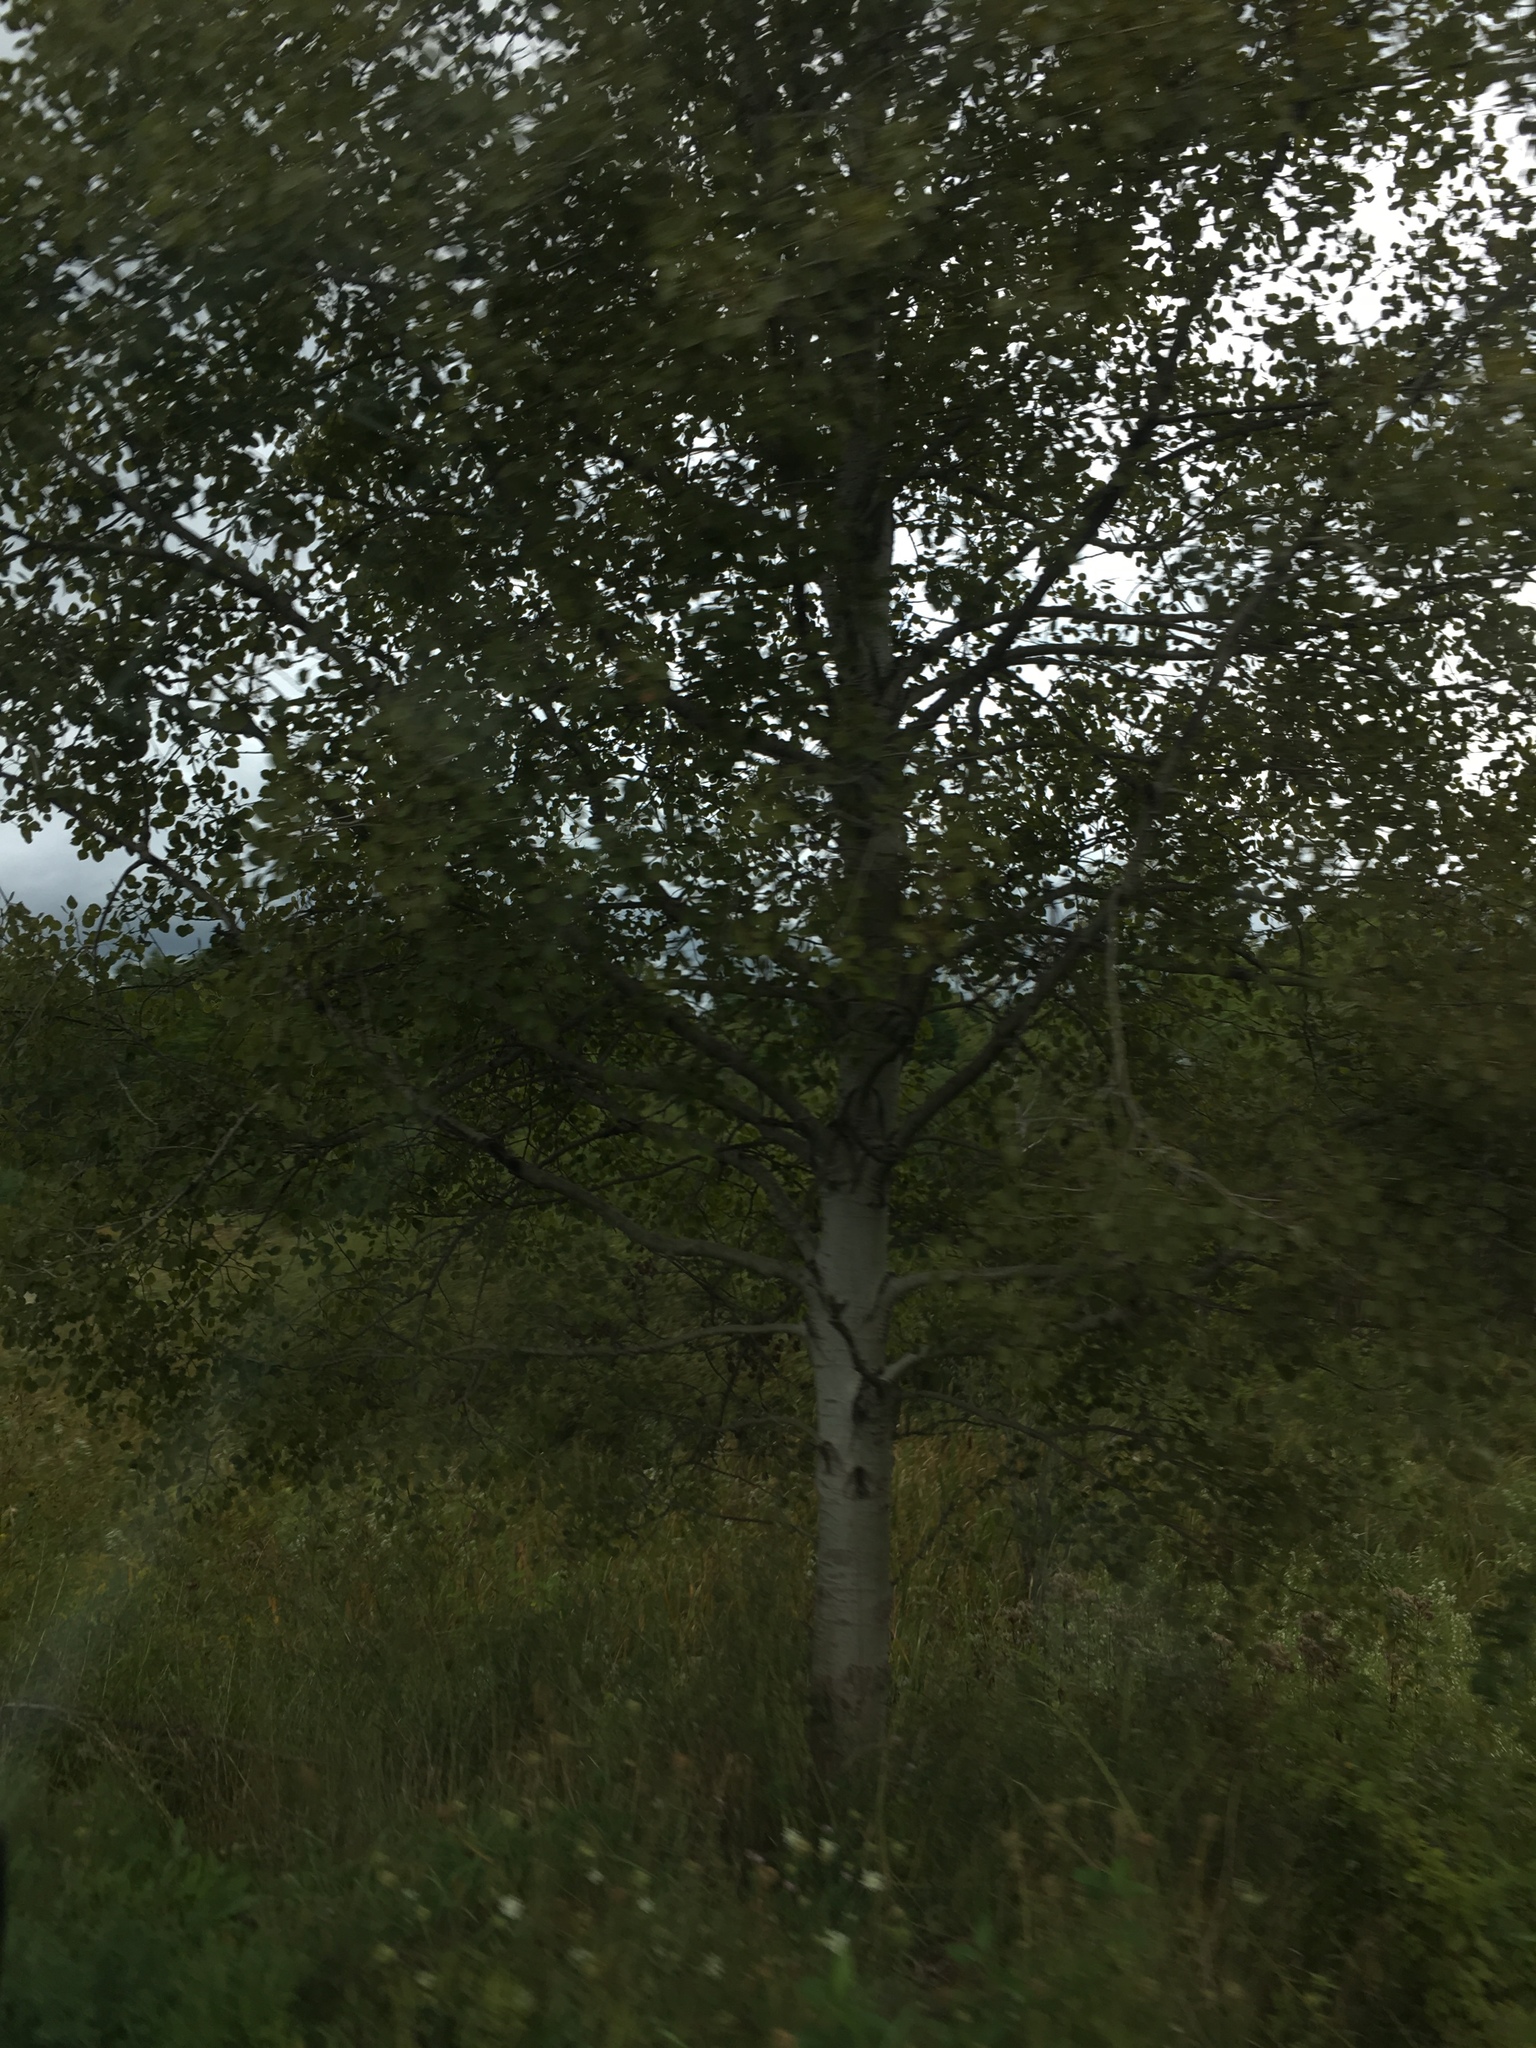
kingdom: Plantae
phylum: Tracheophyta
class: Magnoliopsida
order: Malpighiales
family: Salicaceae
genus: Populus
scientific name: Populus tremuloides
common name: Quaking aspen
